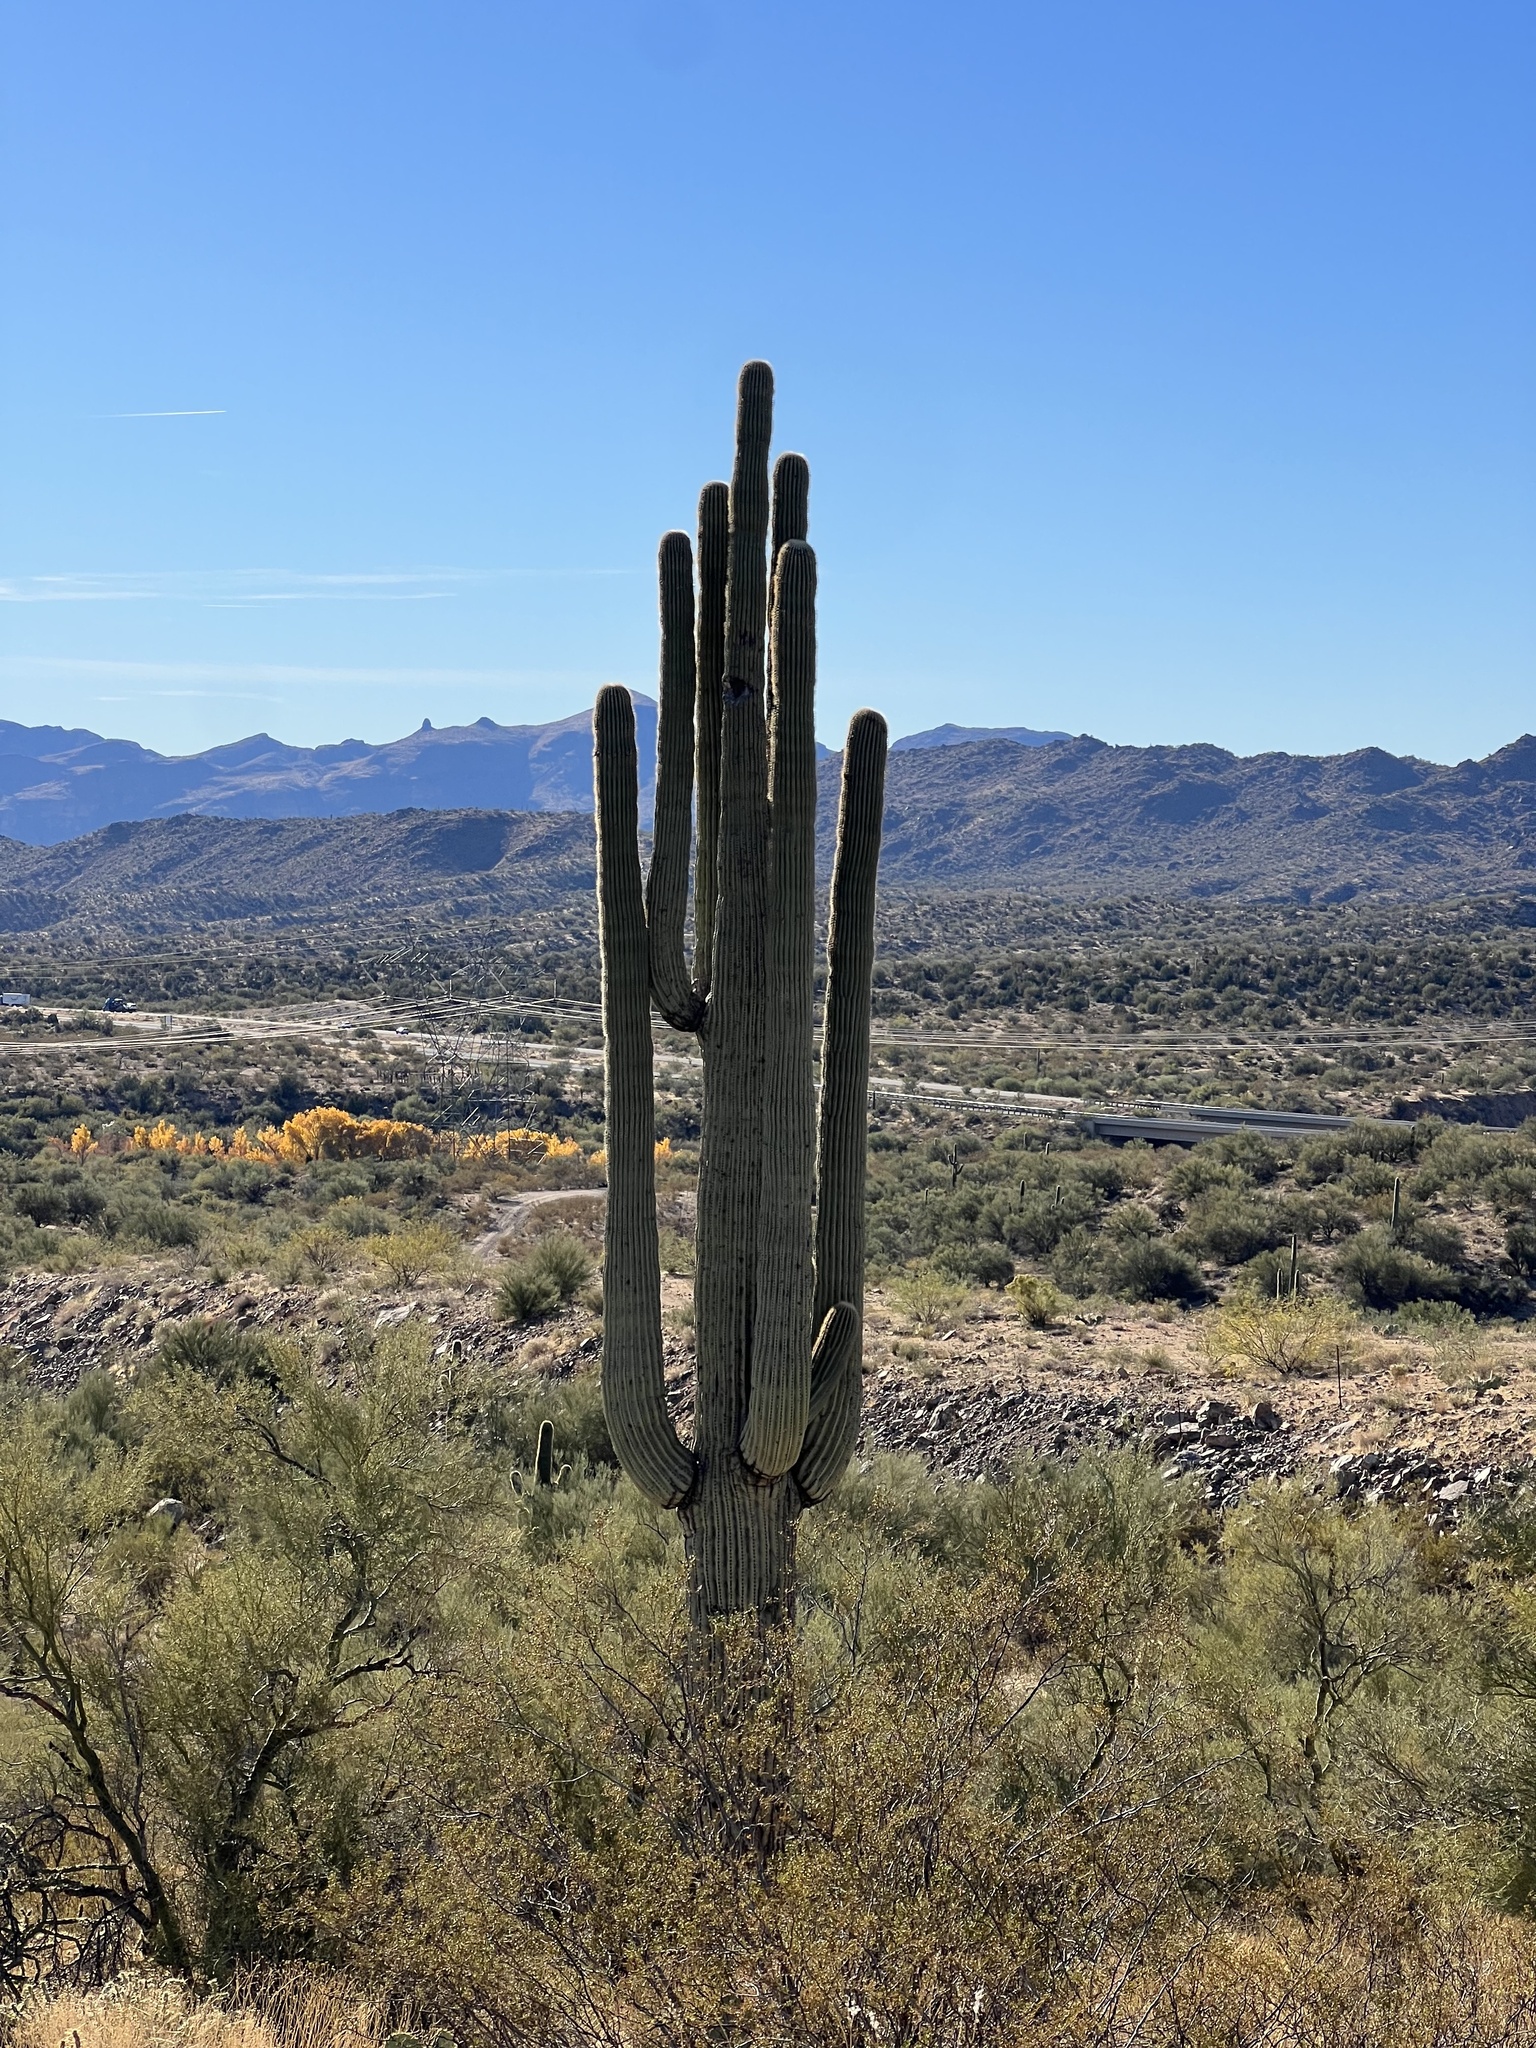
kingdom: Plantae
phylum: Tracheophyta
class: Magnoliopsida
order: Caryophyllales
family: Cactaceae
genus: Carnegiea
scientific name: Carnegiea gigantea
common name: Saguaro
